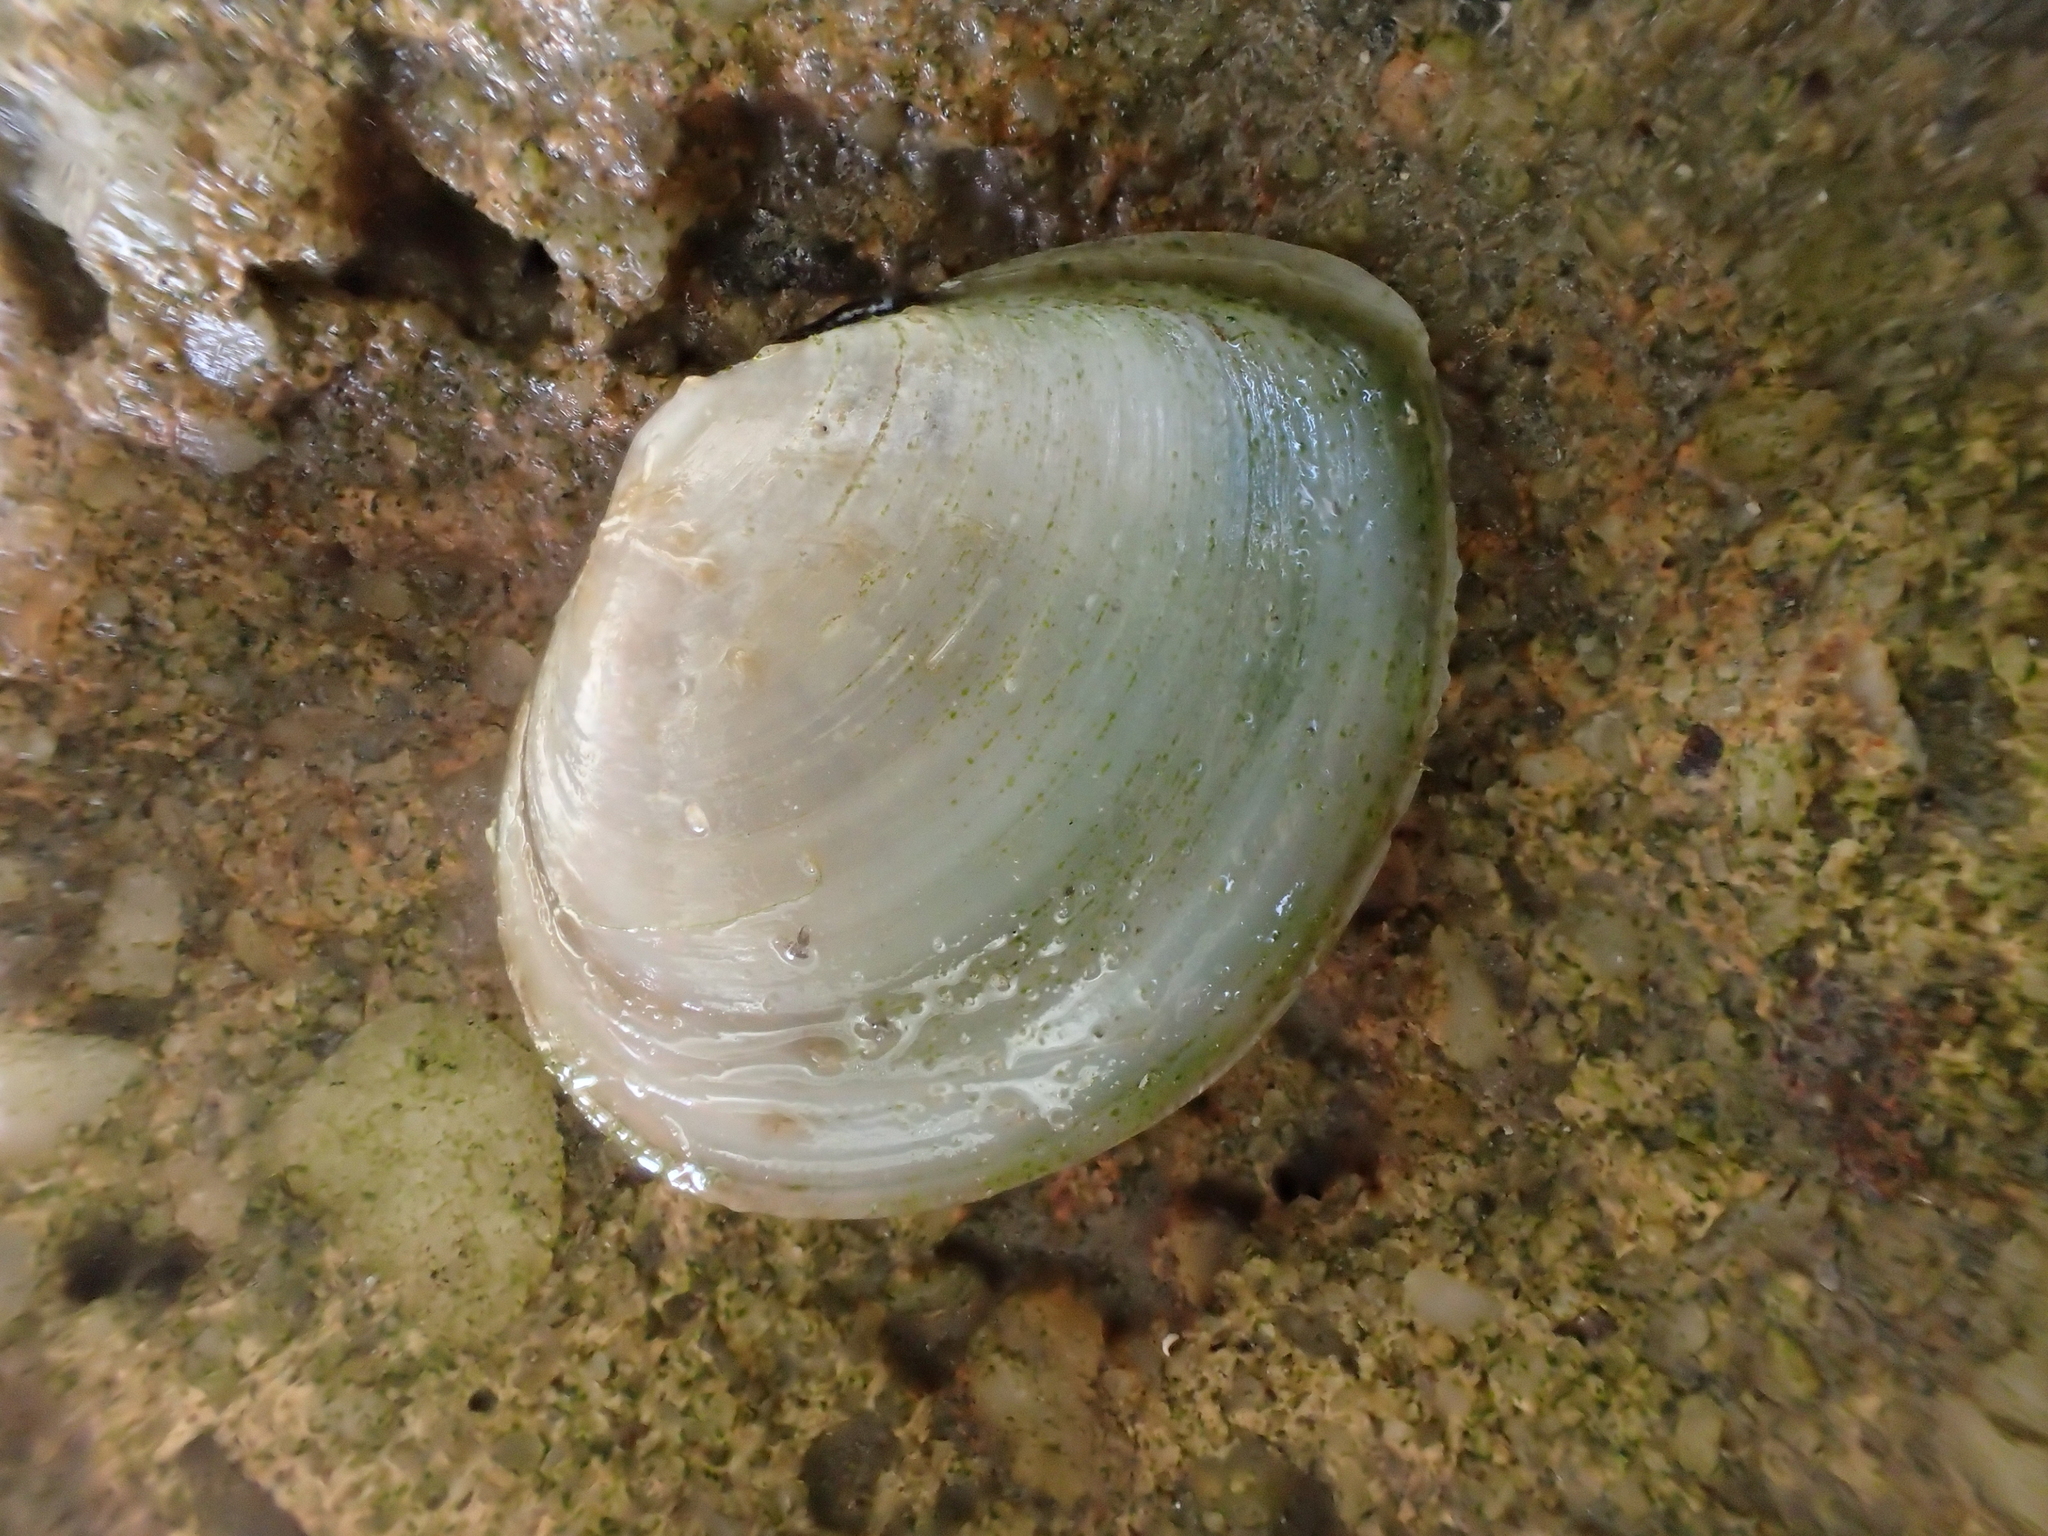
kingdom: Animalia
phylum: Mollusca
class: Bivalvia
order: Cardiida
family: Semelidae
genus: Abra
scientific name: Abra alba
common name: White abra
